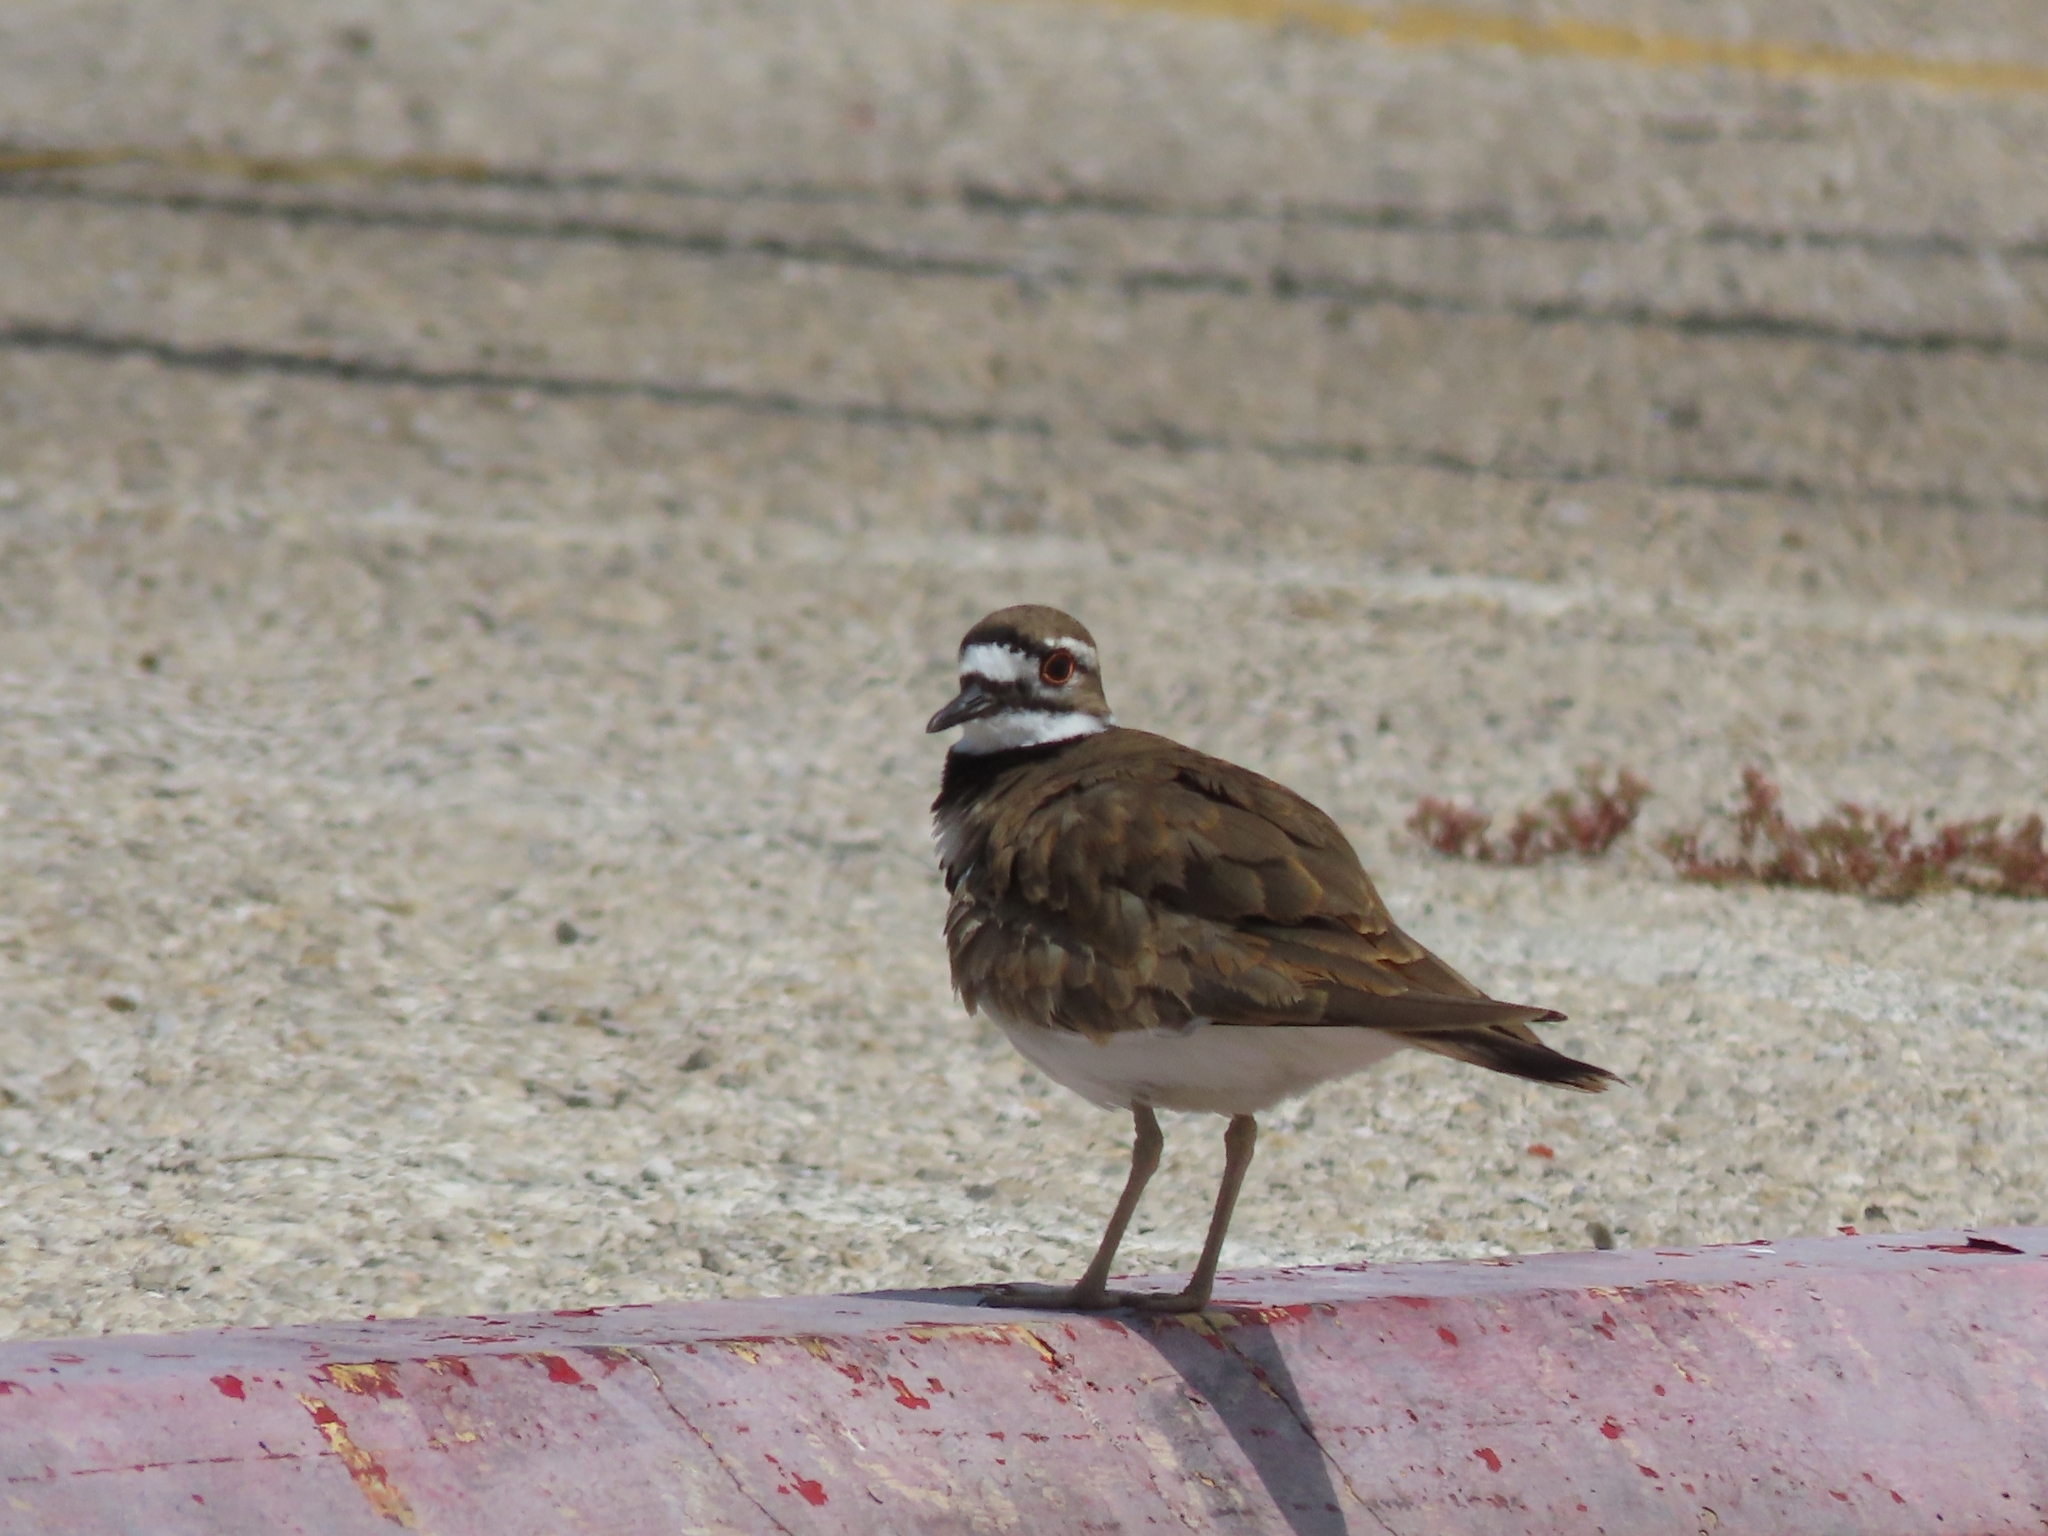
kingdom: Animalia
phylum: Chordata
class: Aves
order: Charadriiformes
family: Charadriidae
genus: Charadrius
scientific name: Charadrius vociferus
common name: Killdeer
